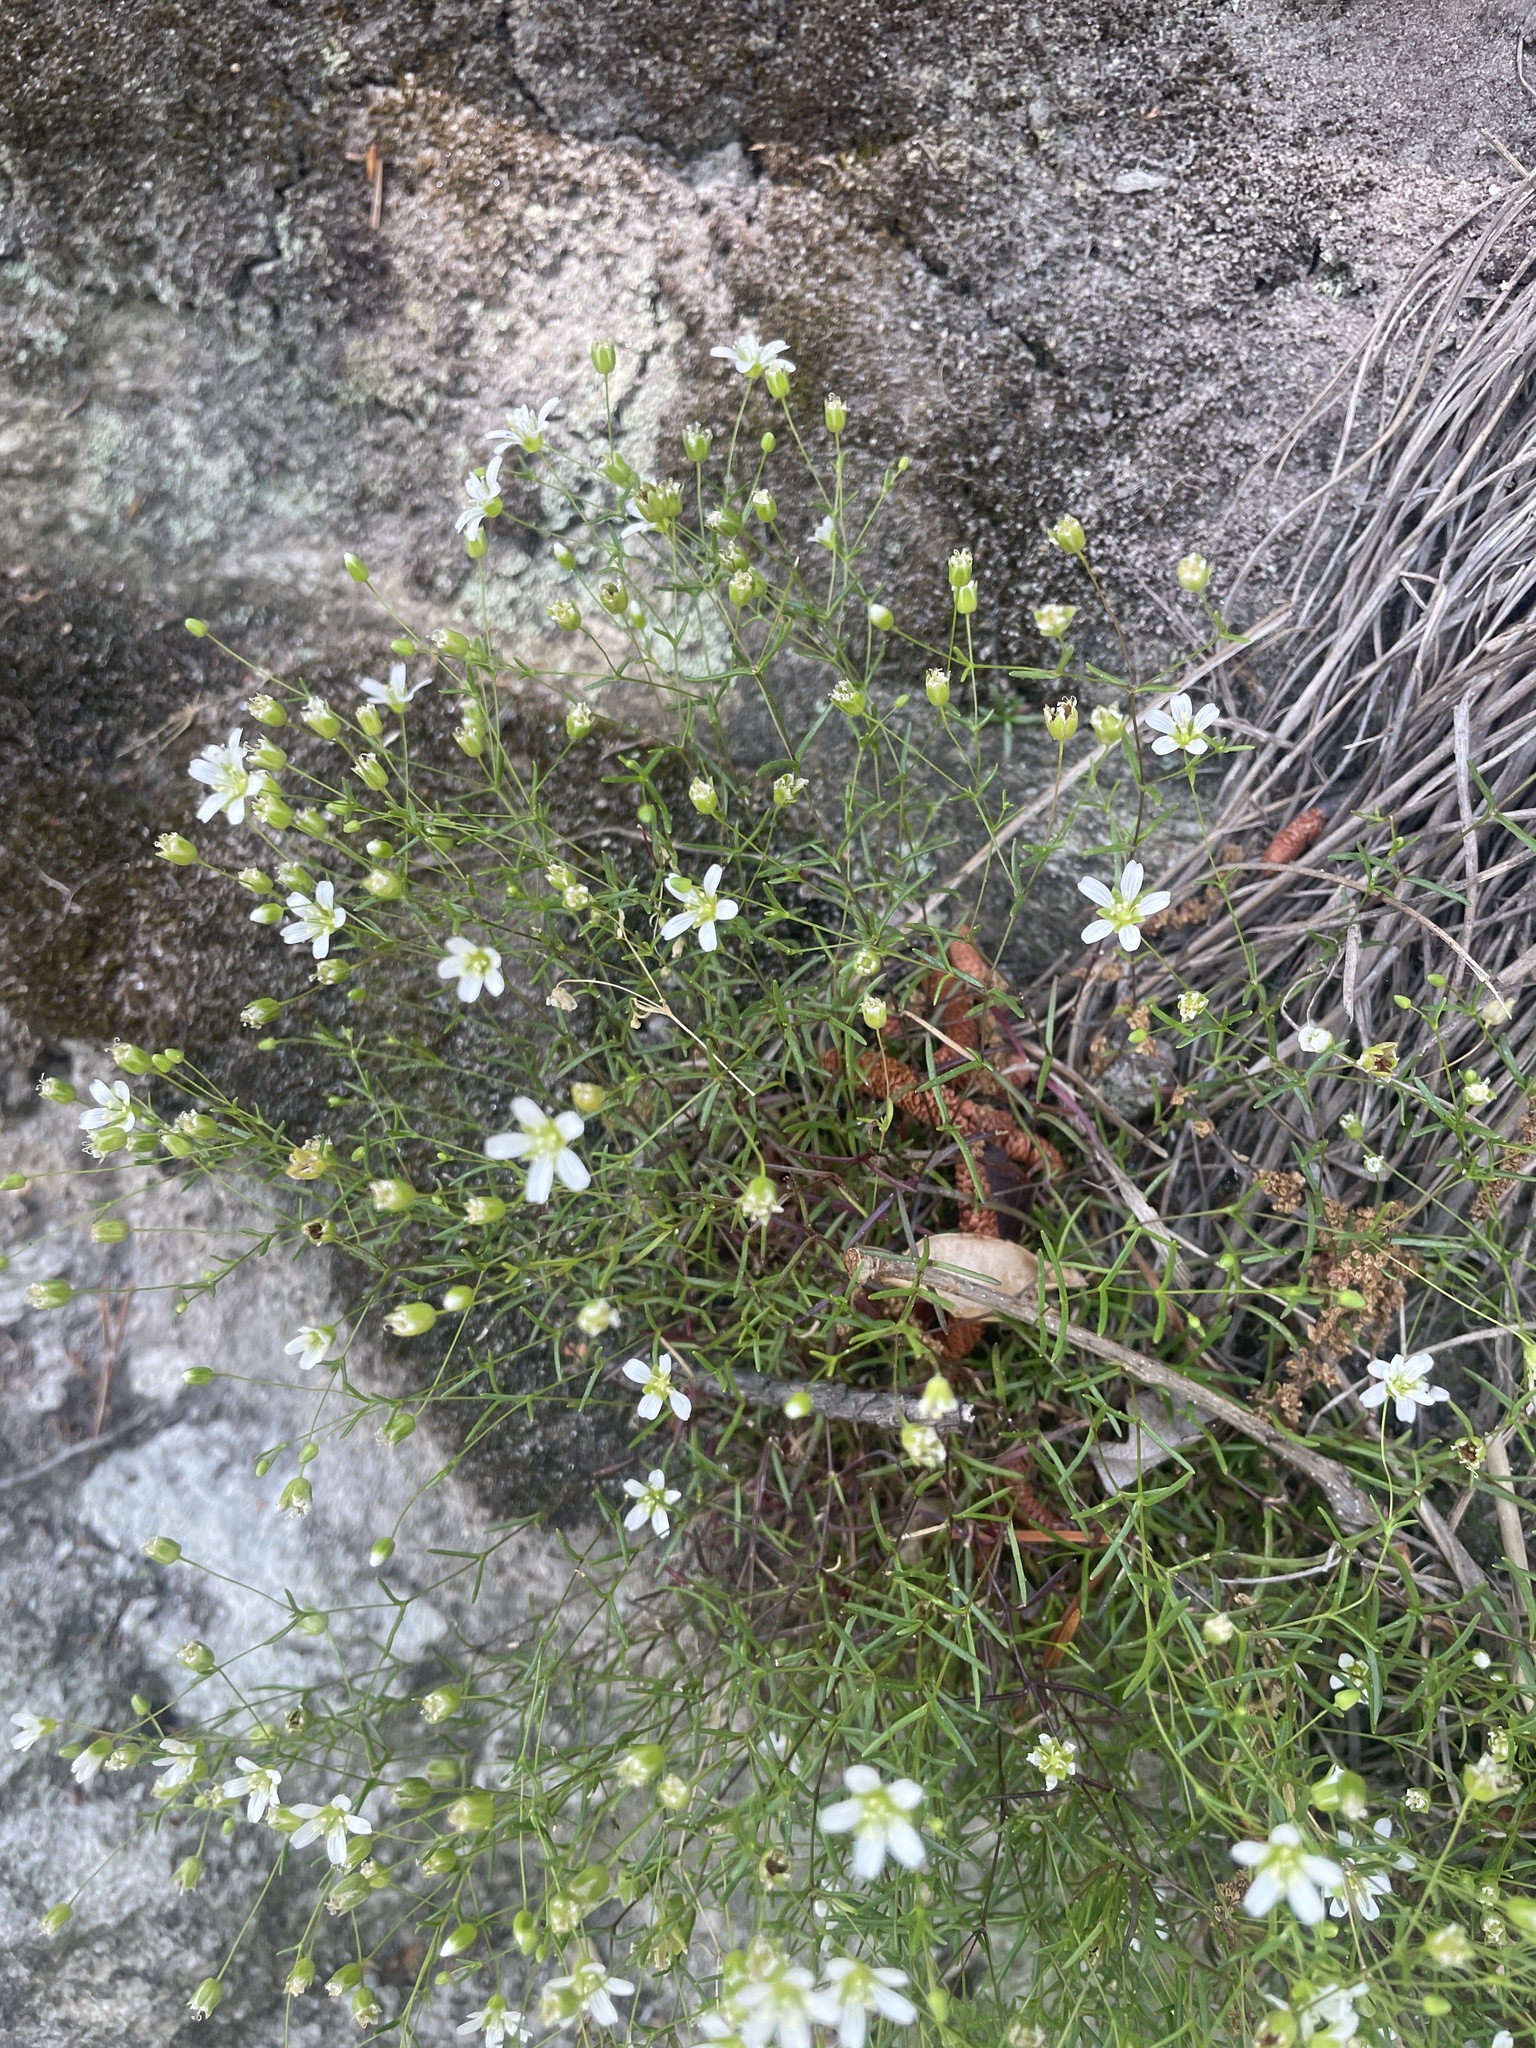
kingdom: Plantae
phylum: Tracheophyta
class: Magnoliopsida
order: Caryophyllales
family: Caryophyllaceae
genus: Geocarpon
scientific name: Geocarpon groenlandicum
